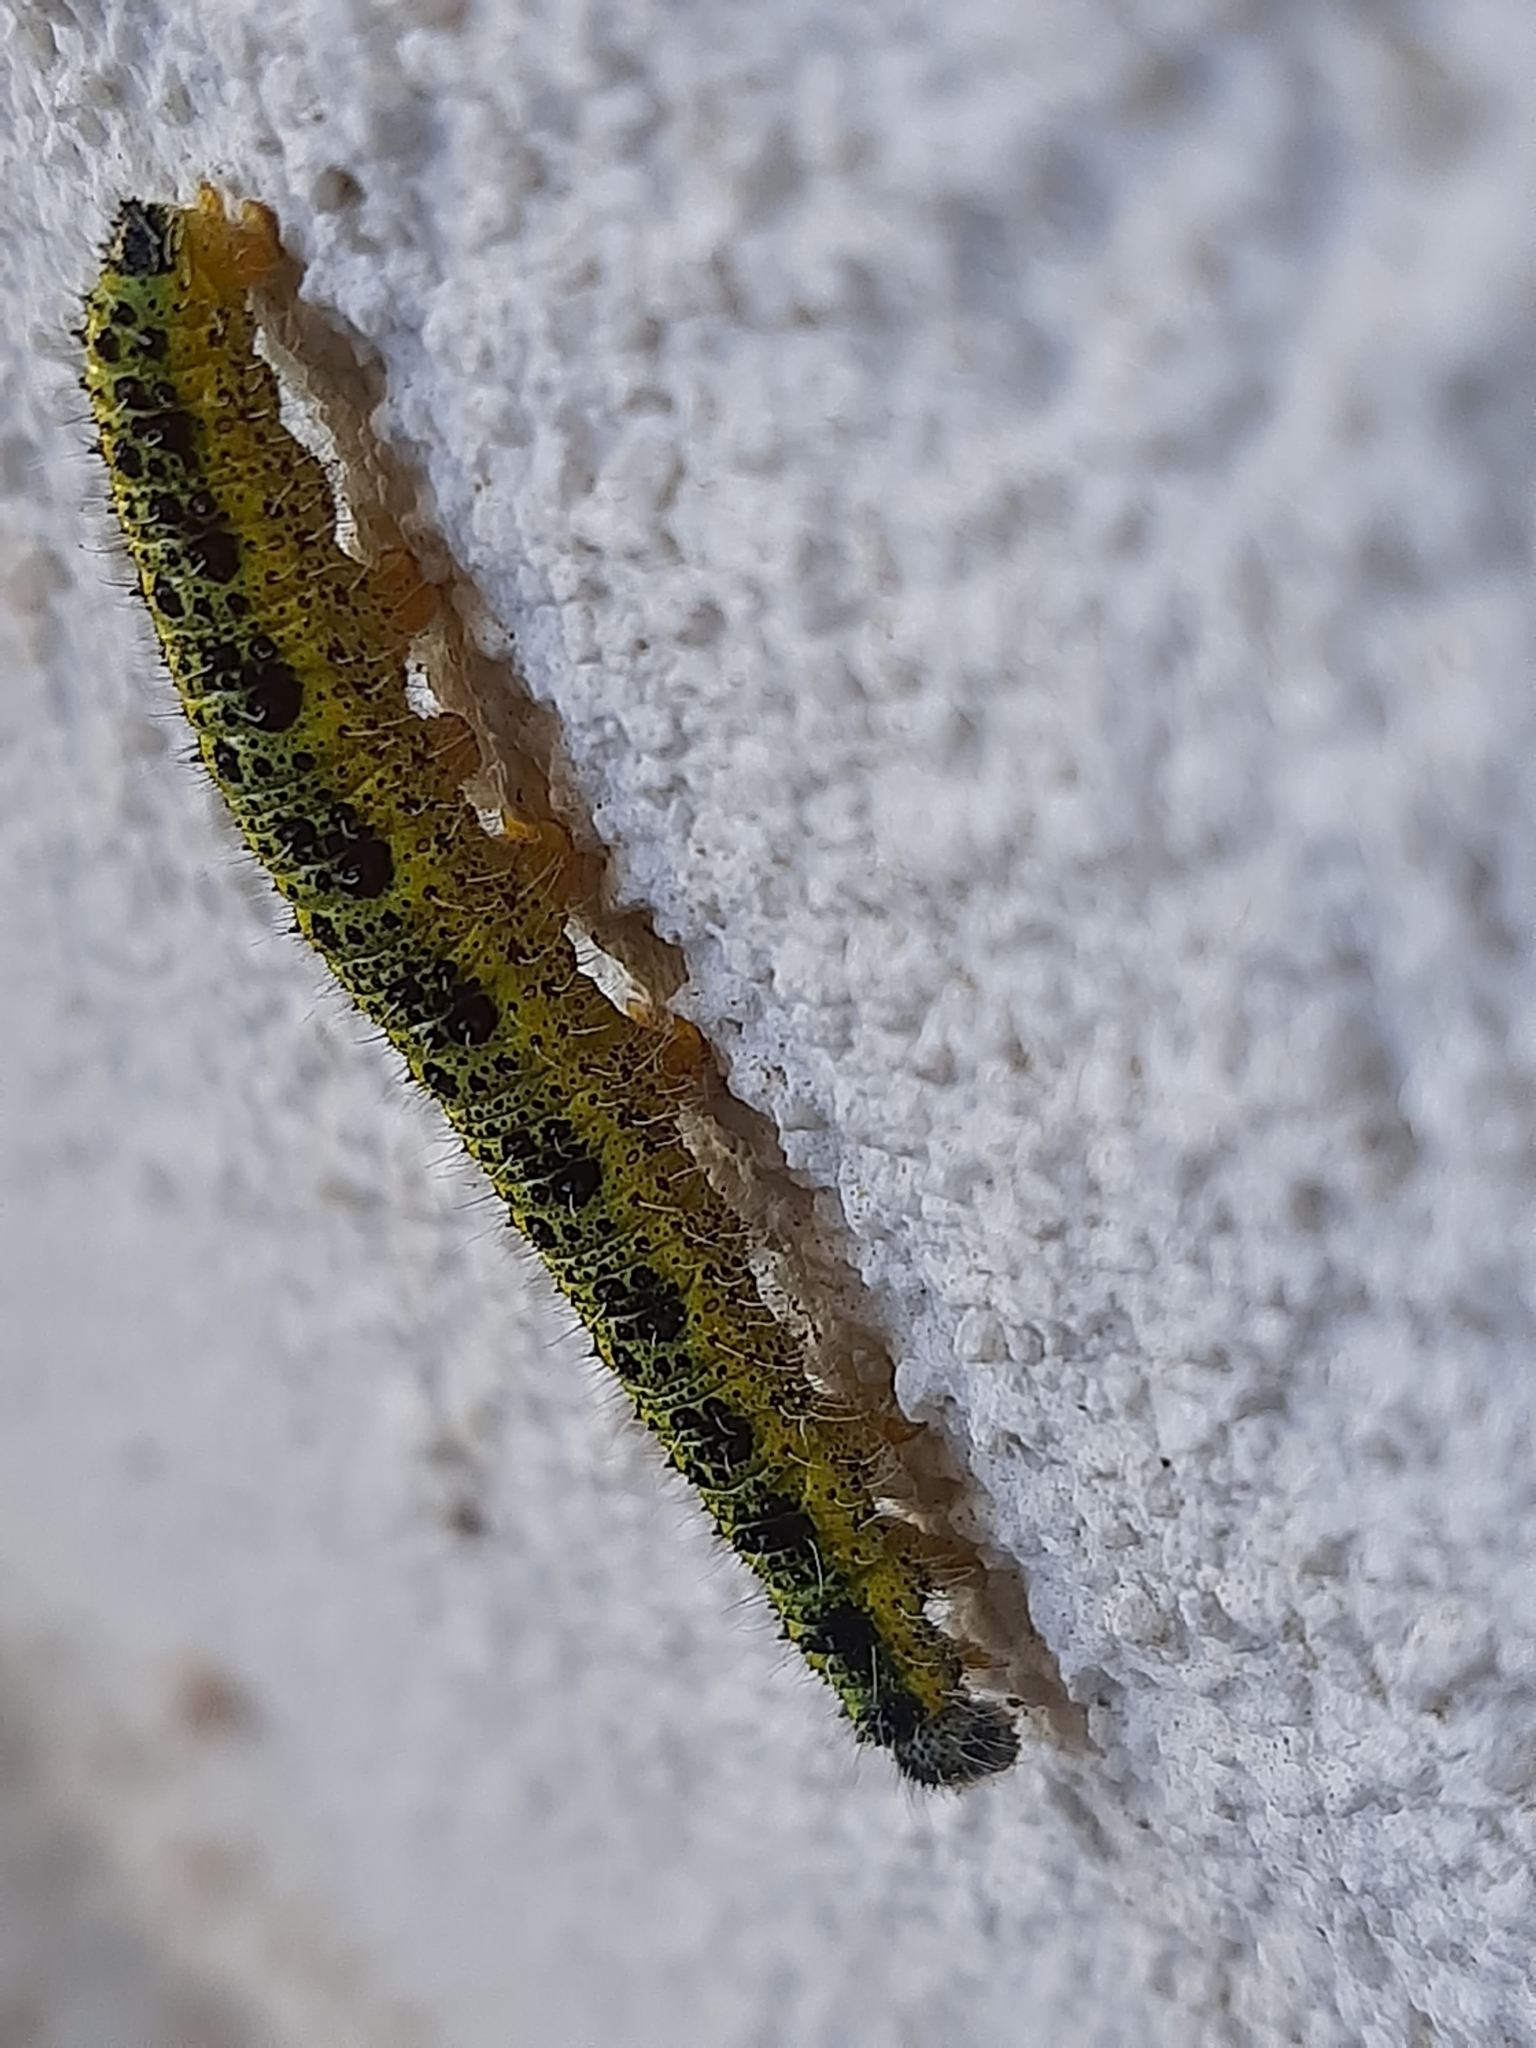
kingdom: Animalia
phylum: Arthropoda
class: Insecta
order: Lepidoptera
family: Pieridae
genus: Pieris
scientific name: Pieris brassicae
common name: Large white
